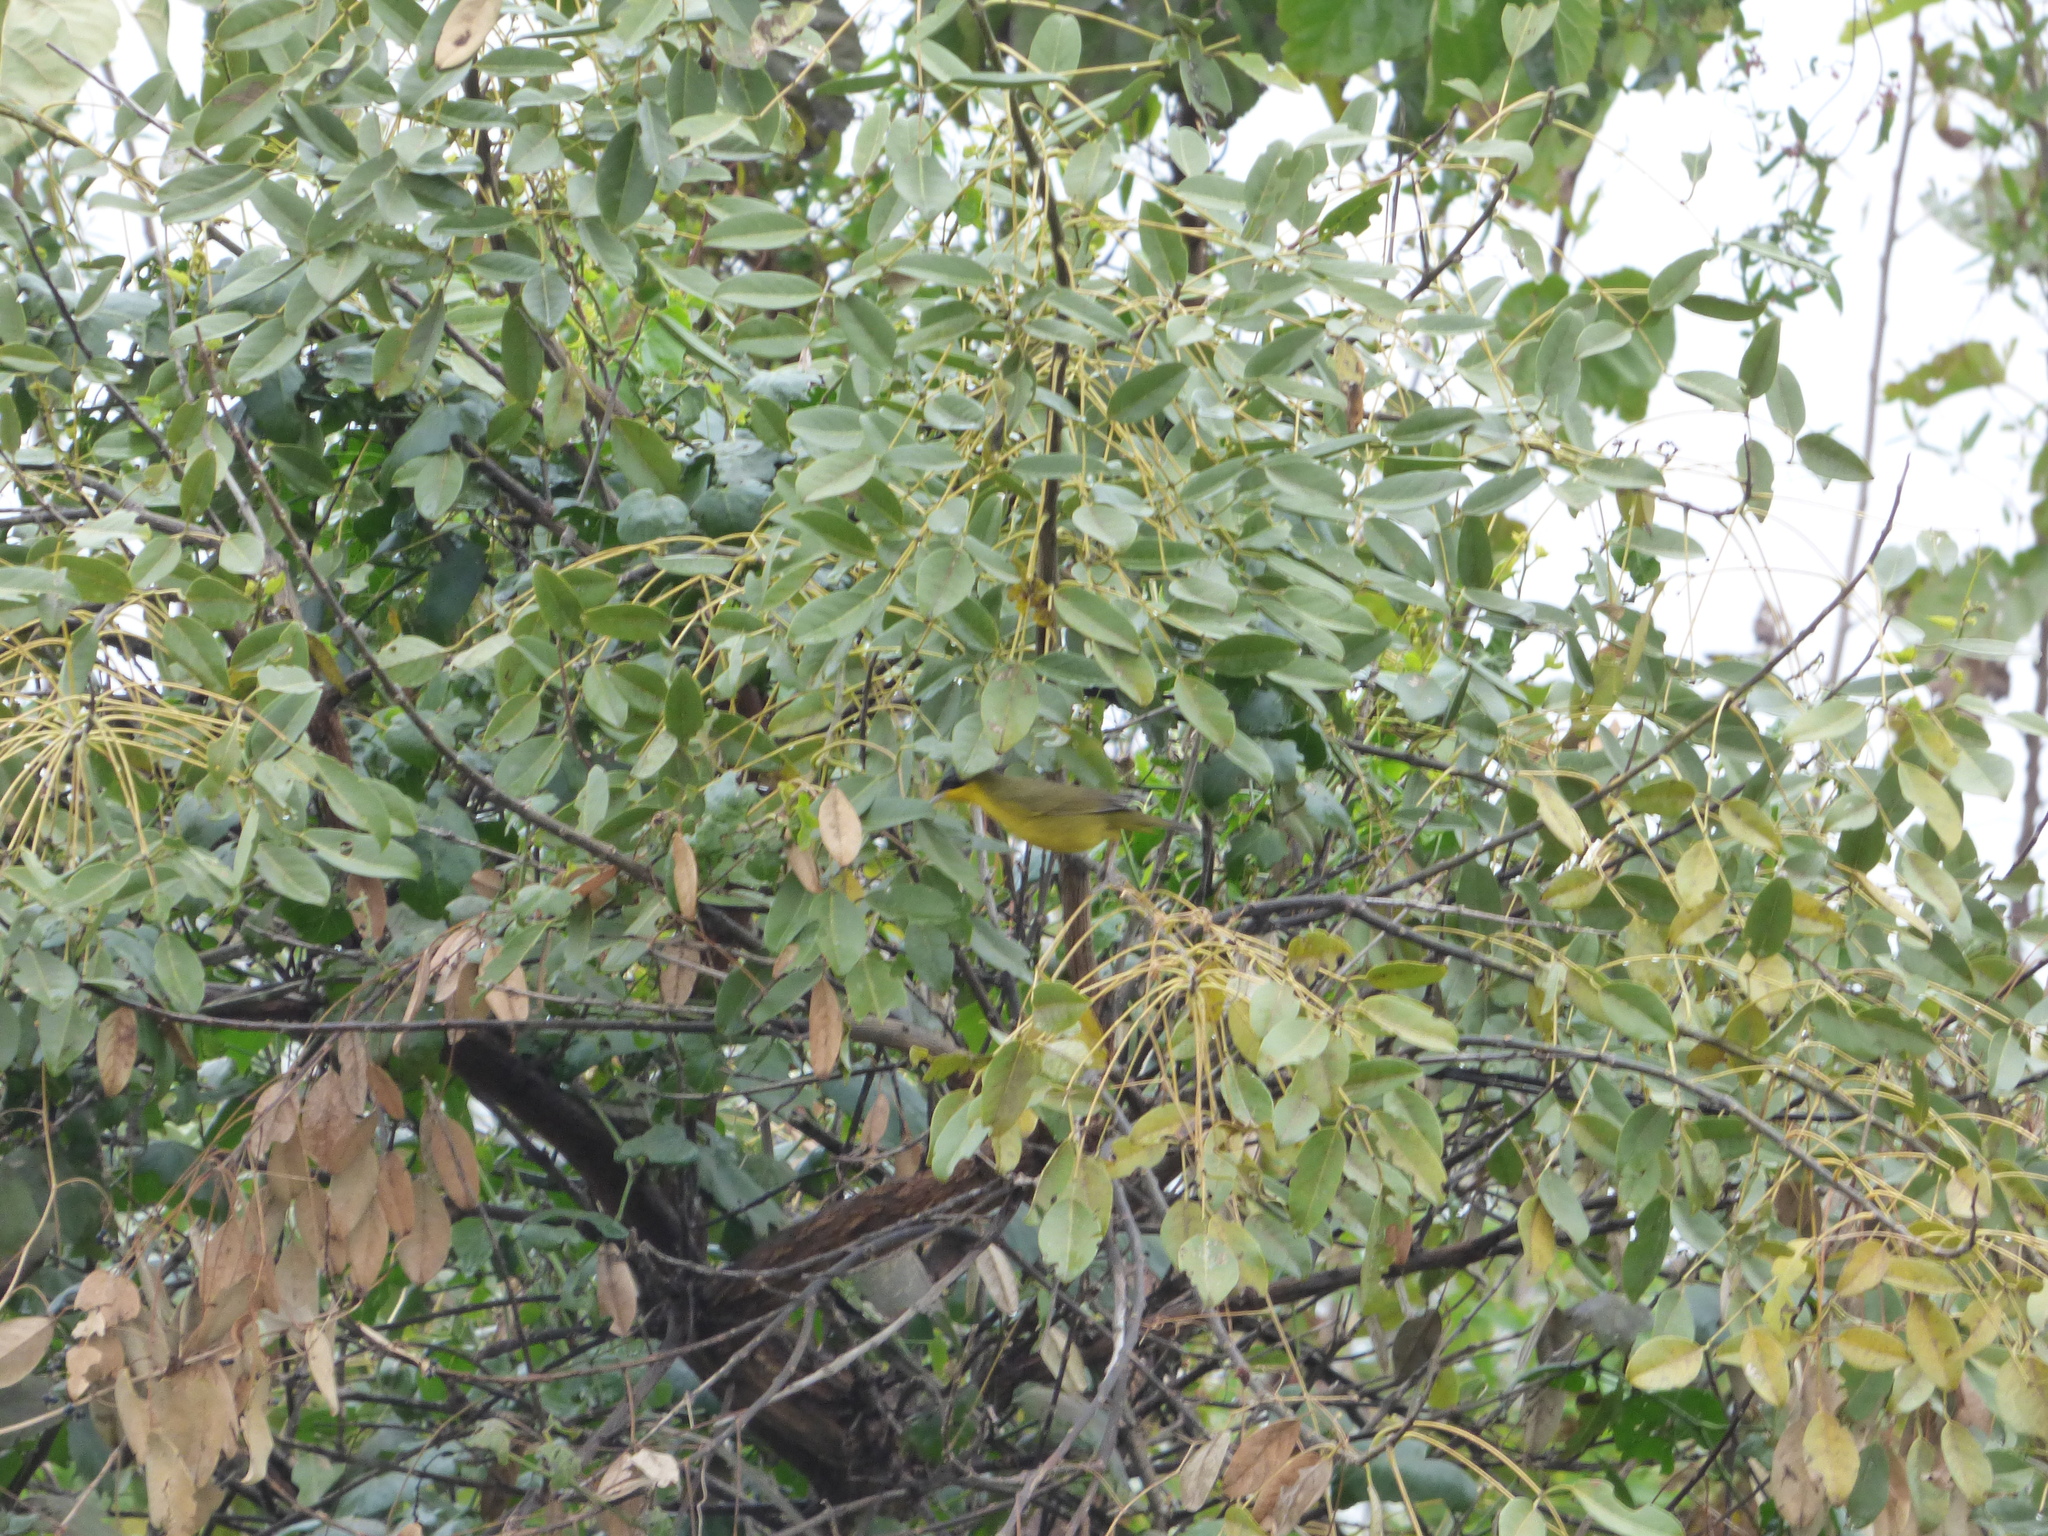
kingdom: Animalia
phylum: Chordata
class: Aves
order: Passeriformes
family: Parulidae
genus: Geothlypis
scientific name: Geothlypis velata
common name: Southern yellowthroat
